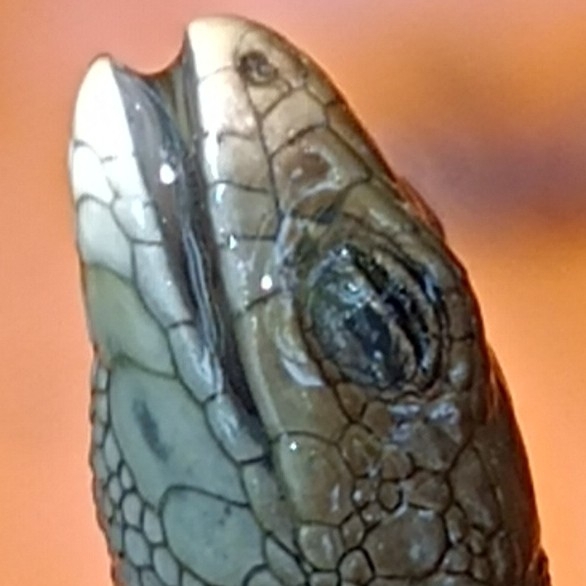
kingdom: Animalia
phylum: Chordata
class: Squamata
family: Lacertidae
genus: Zootoca
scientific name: Zootoca vivipara
